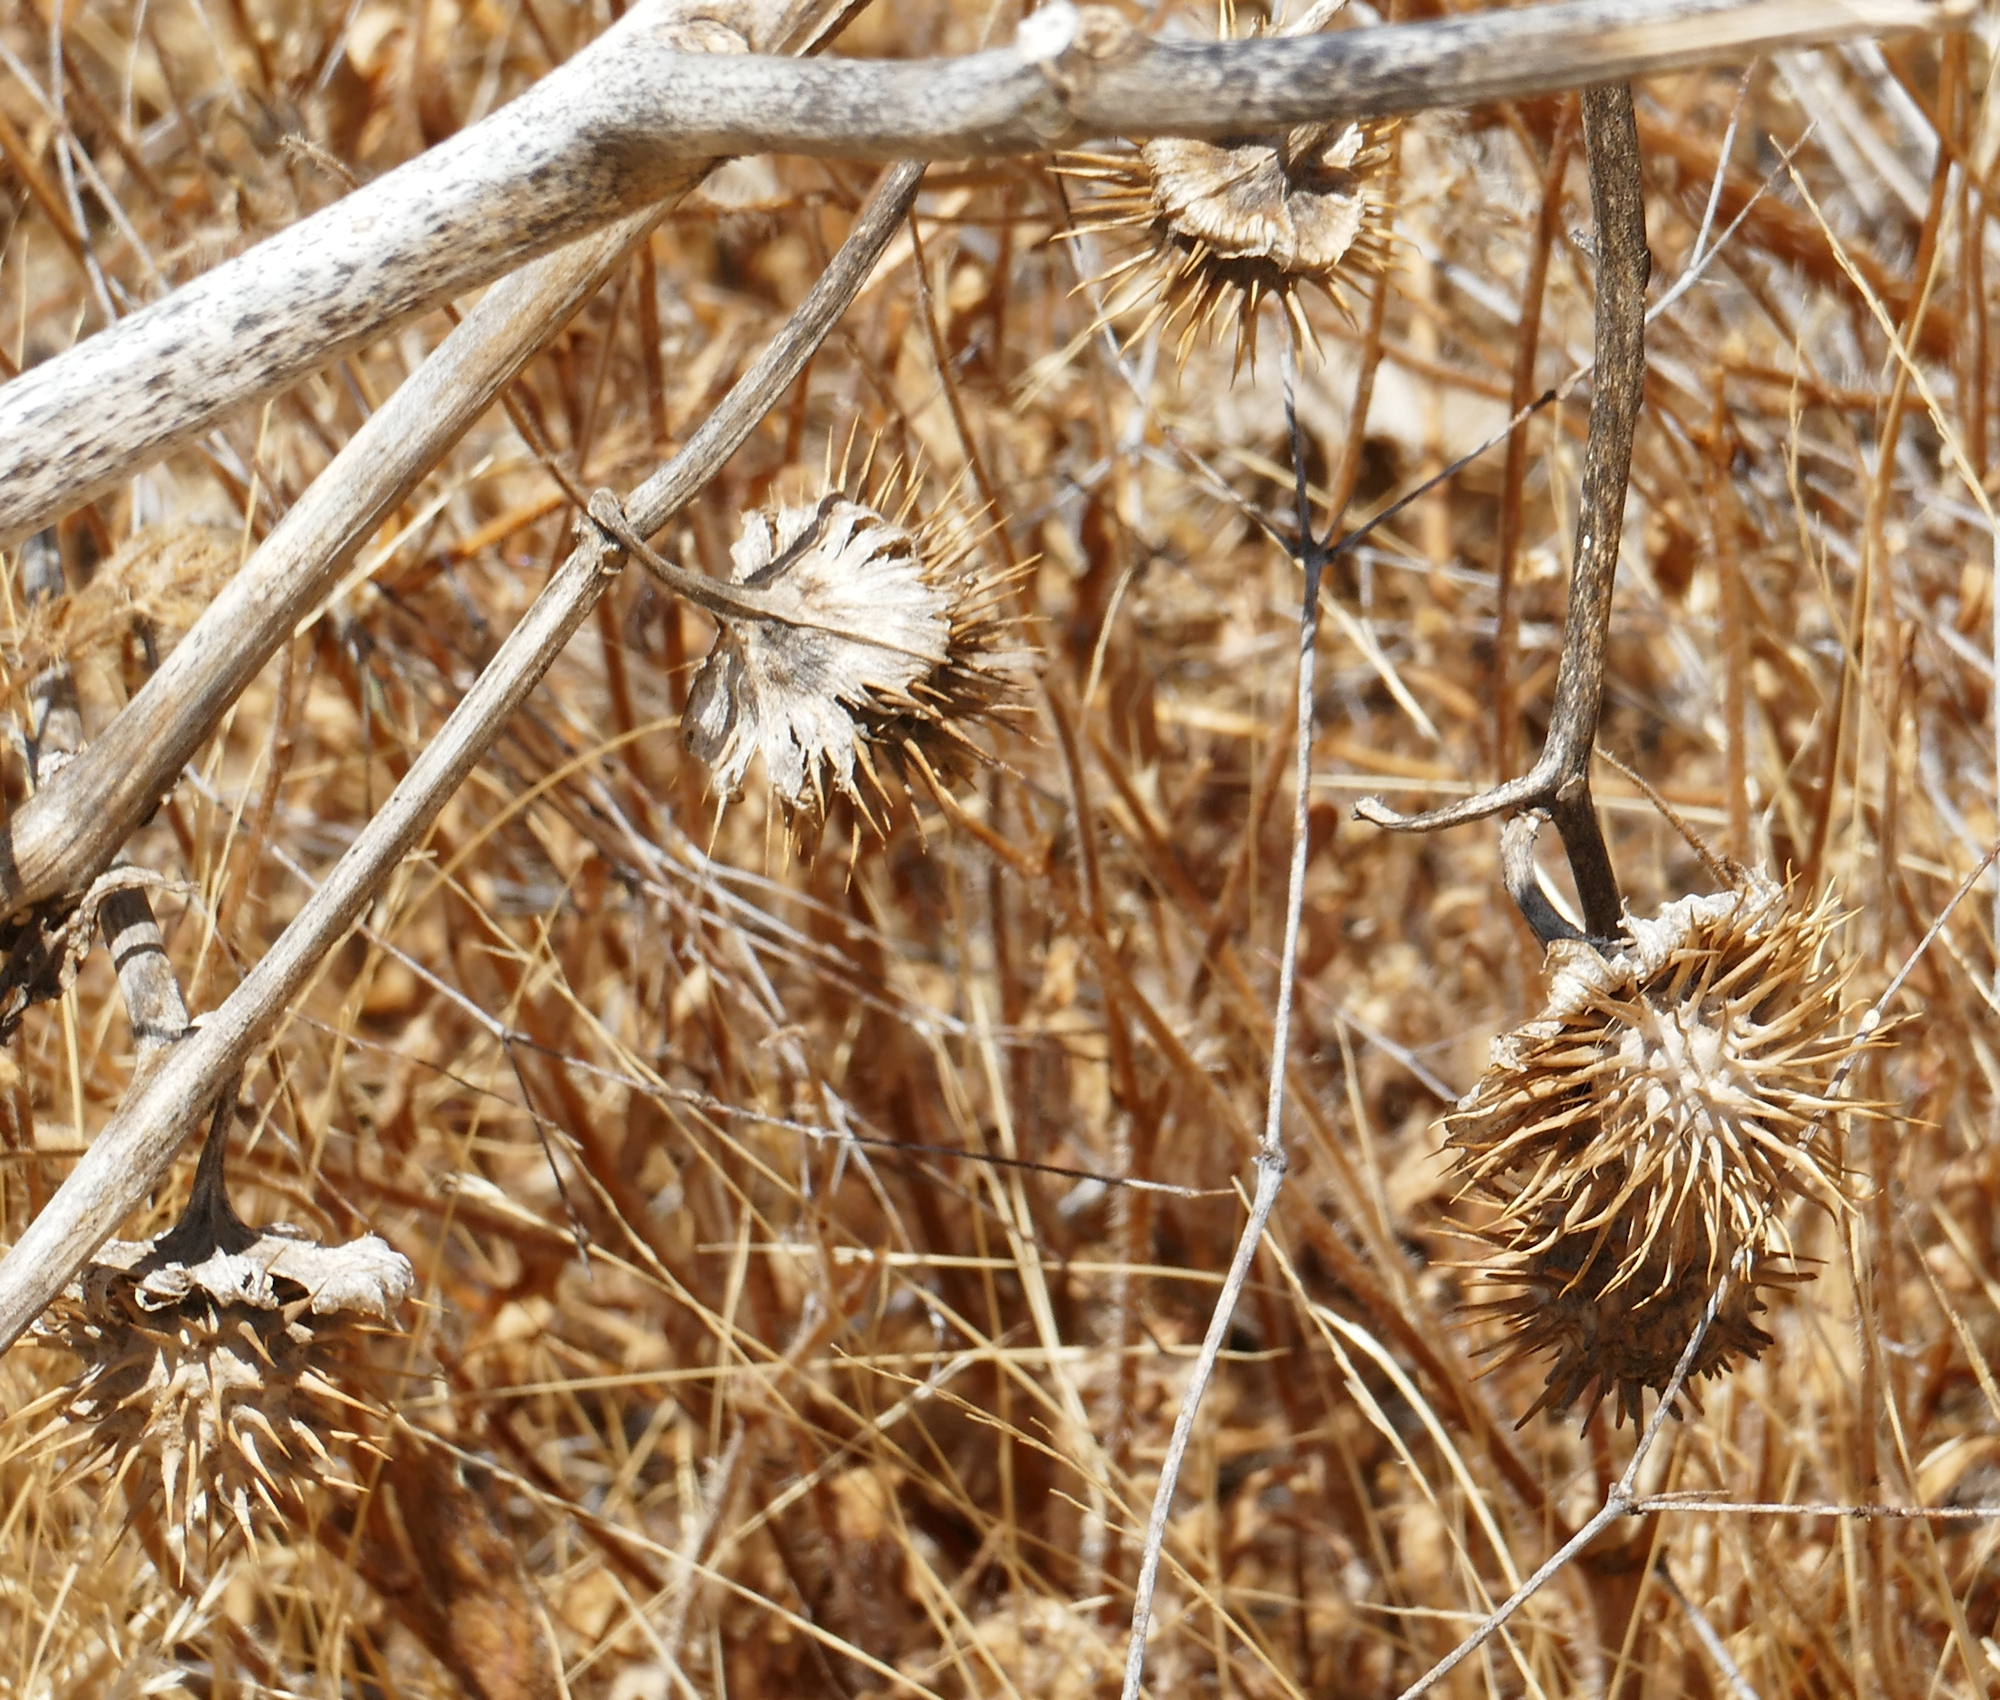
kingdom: Plantae
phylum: Tracheophyta
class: Magnoliopsida
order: Solanales
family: Solanaceae
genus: Datura
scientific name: Datura discolor
